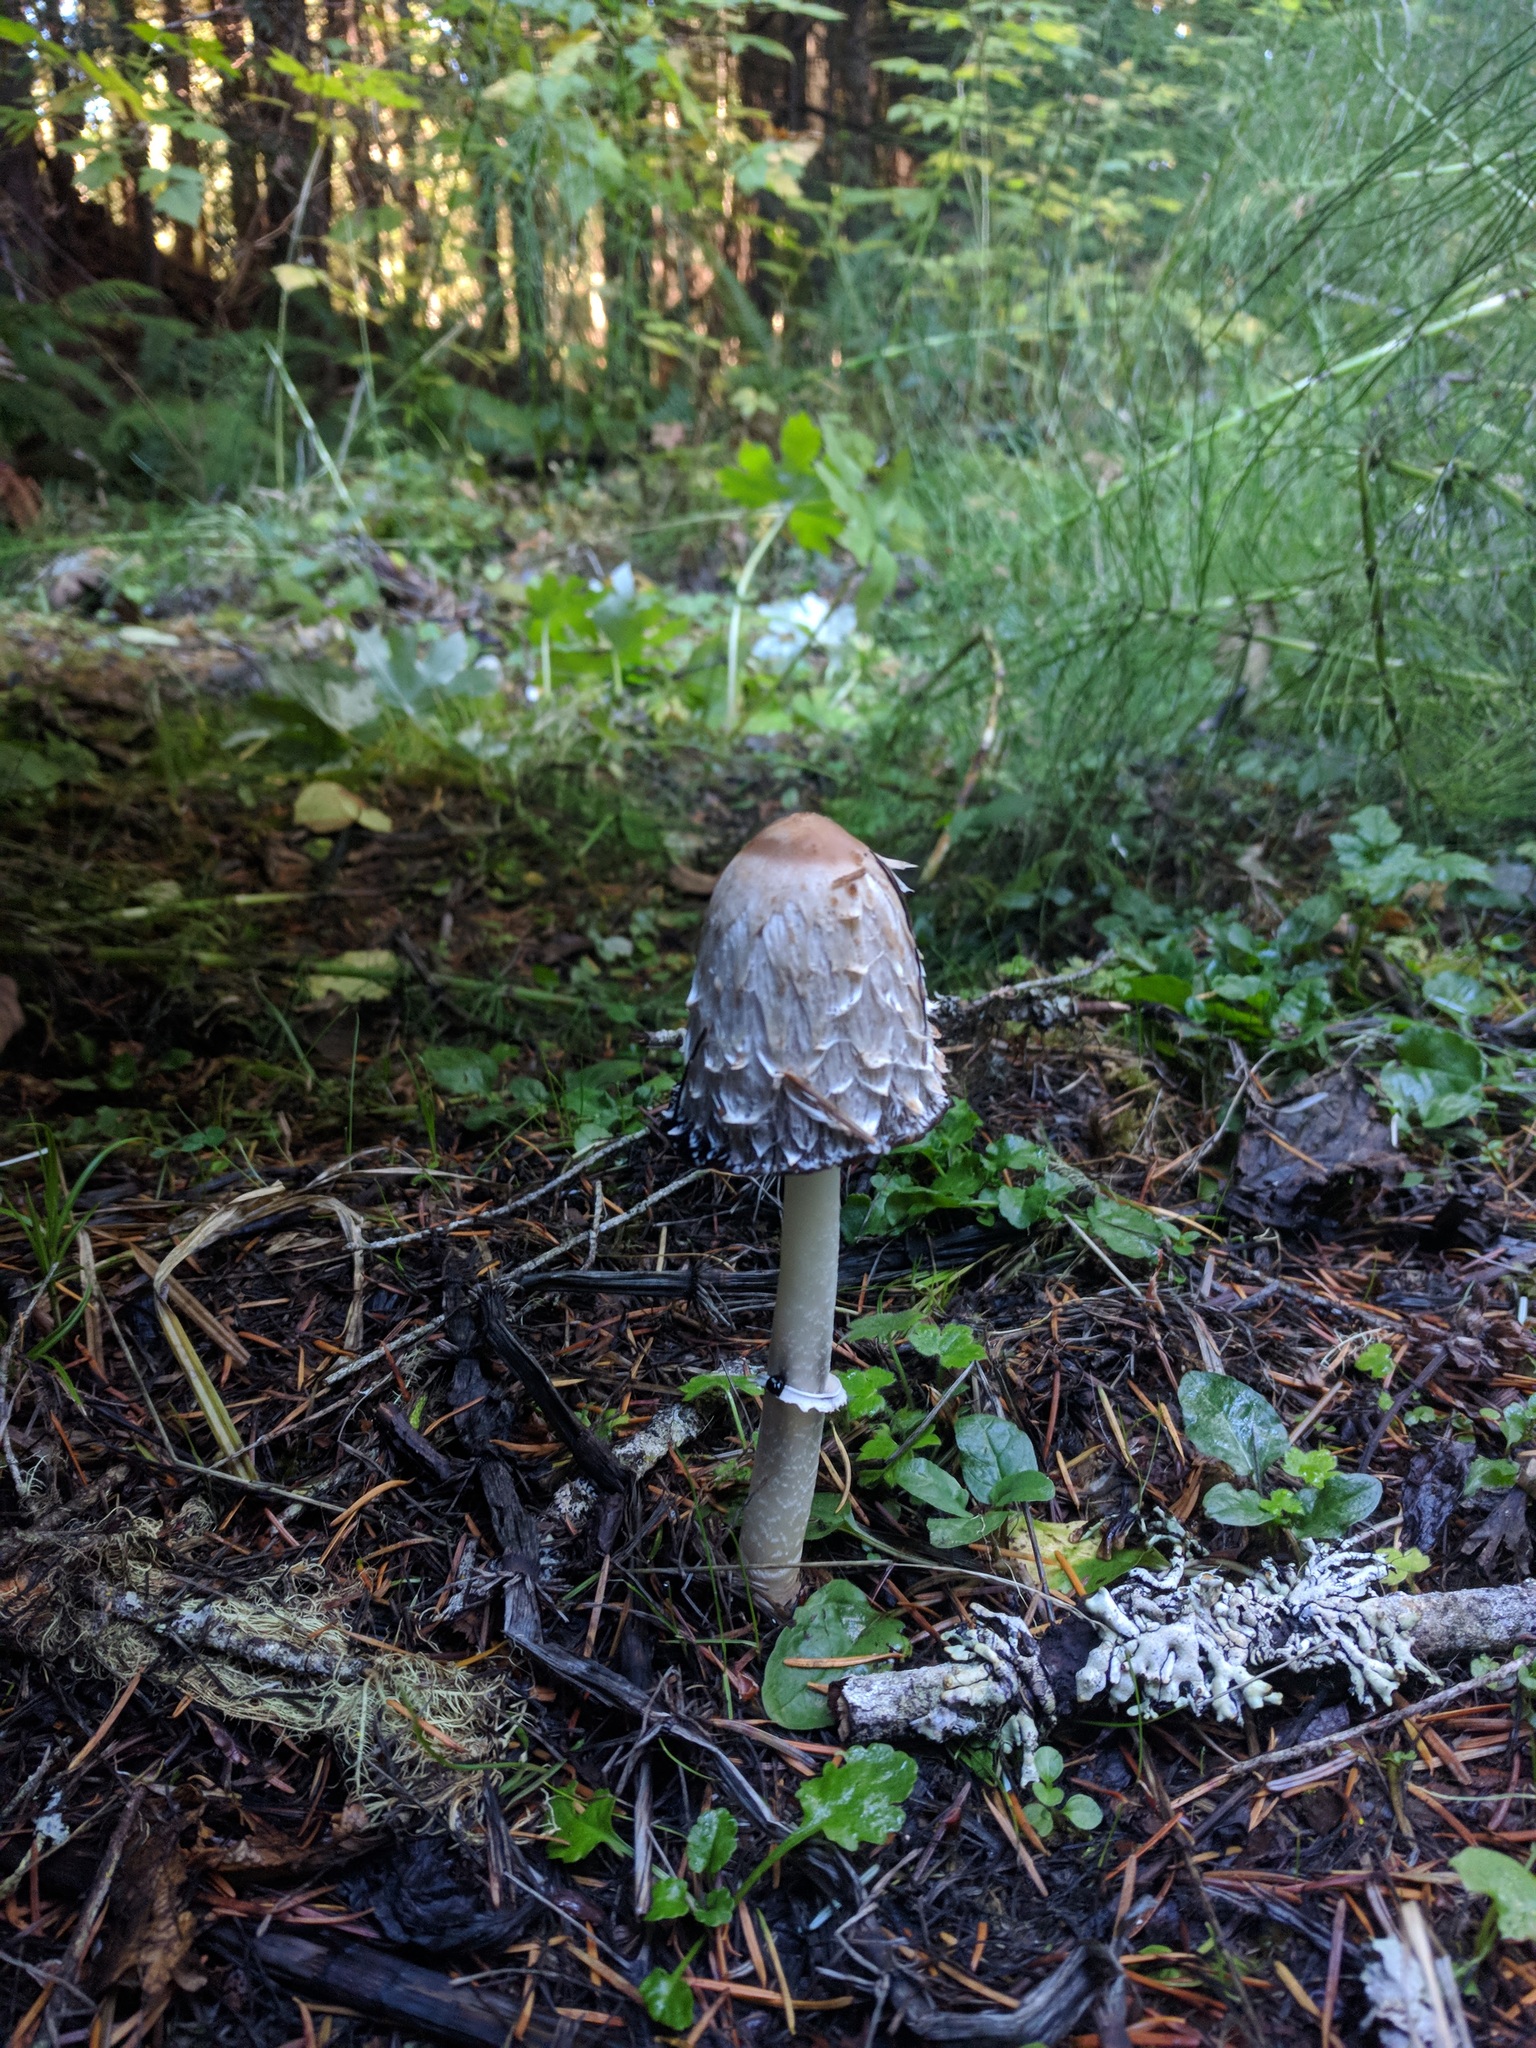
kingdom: Fungi
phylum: Basidiomycota
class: Agaricomycetes
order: Agaricales
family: Agaricaceae
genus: Coprinus
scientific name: Coprinus comatus
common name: Lawyer's wig
